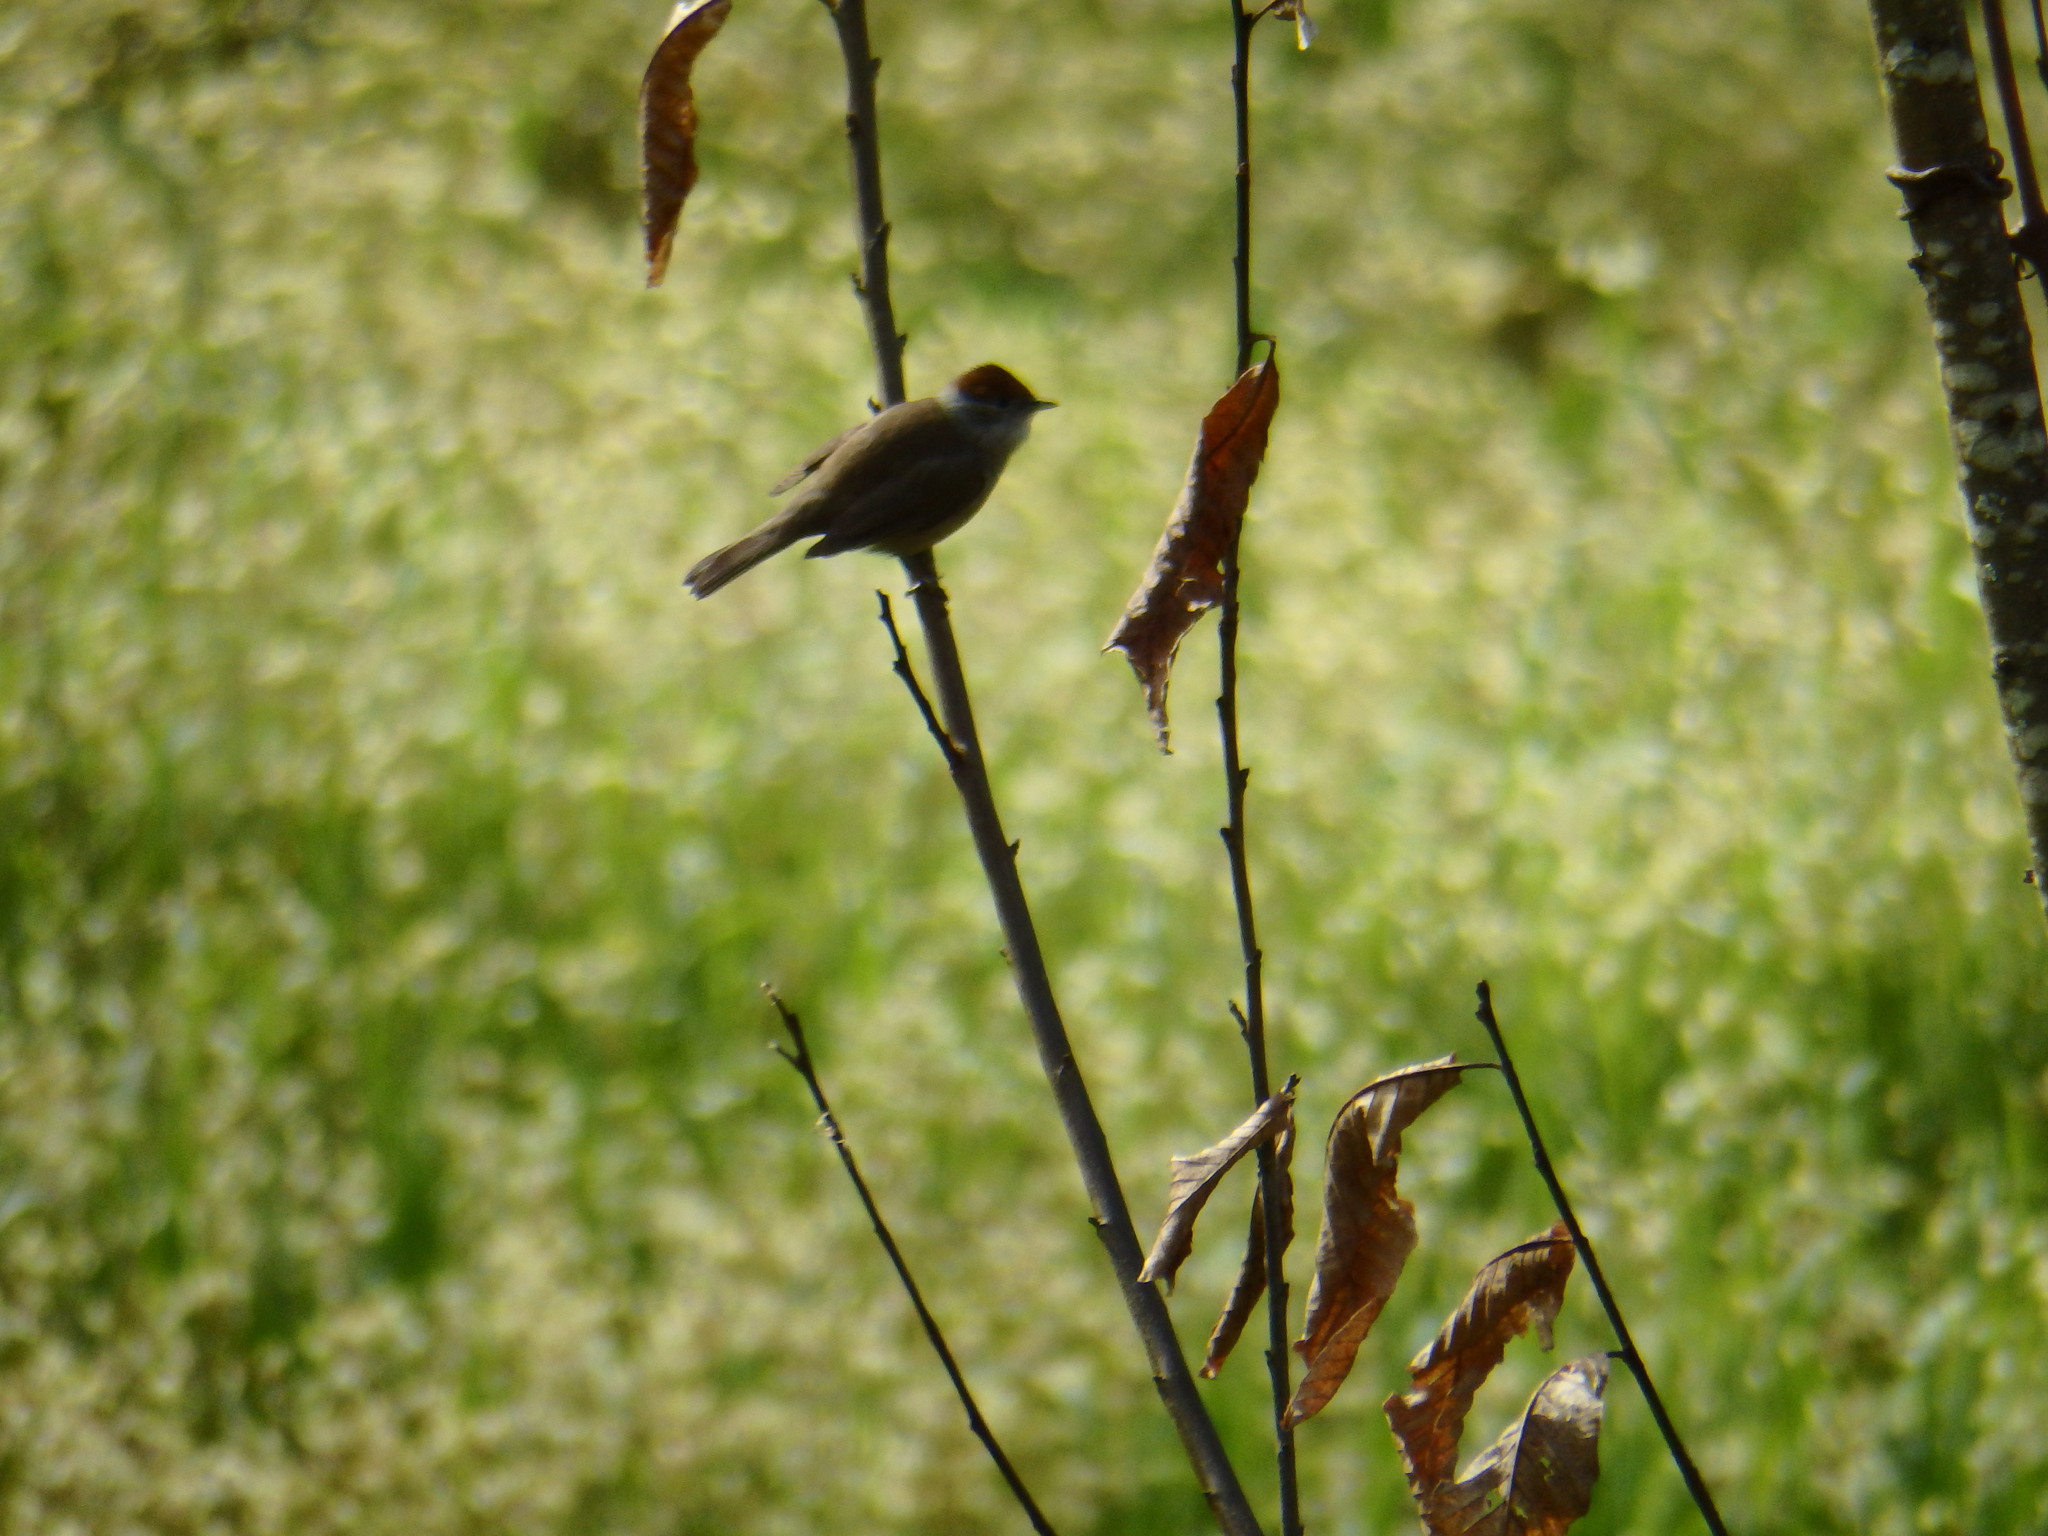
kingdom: Animalia
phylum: Chordata
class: Aves
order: Passeriformes
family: Sylviidae
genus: Sylvia
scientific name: Sylvia atricapilla
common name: Eurasian blackcap
